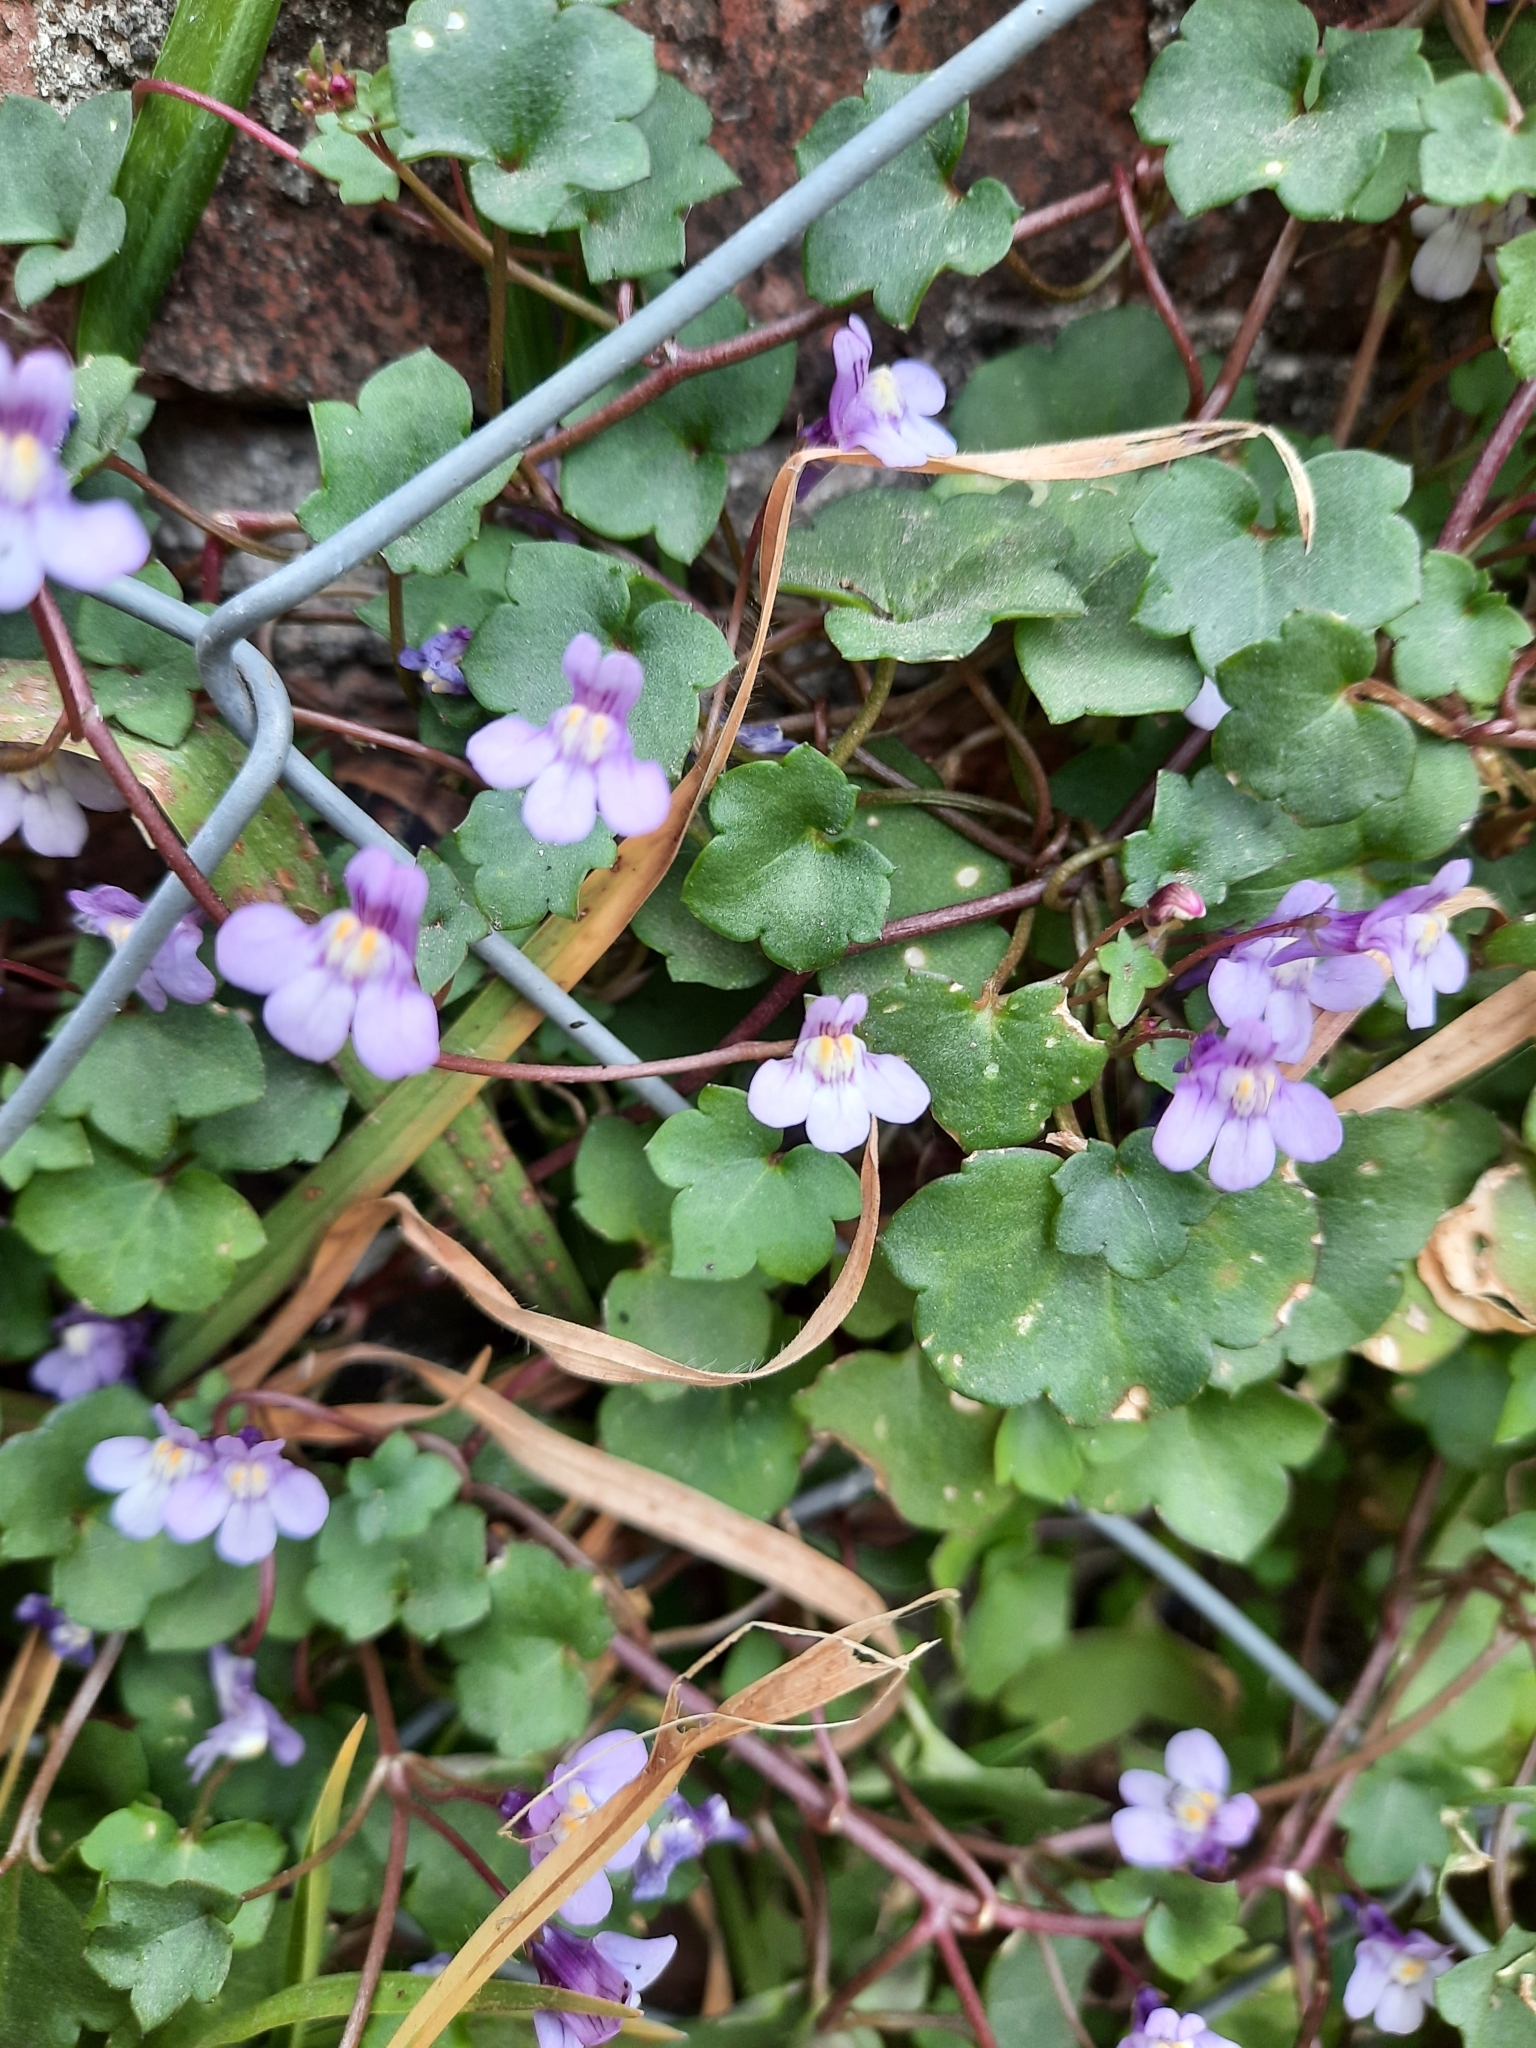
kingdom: Plantae
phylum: Tracheophyta
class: Magnoliopsida
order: Lamiales
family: Plantaginaceae
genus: Cymbalaria
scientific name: Cymbalaria muralis
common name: Ivy-leaved toadflax
